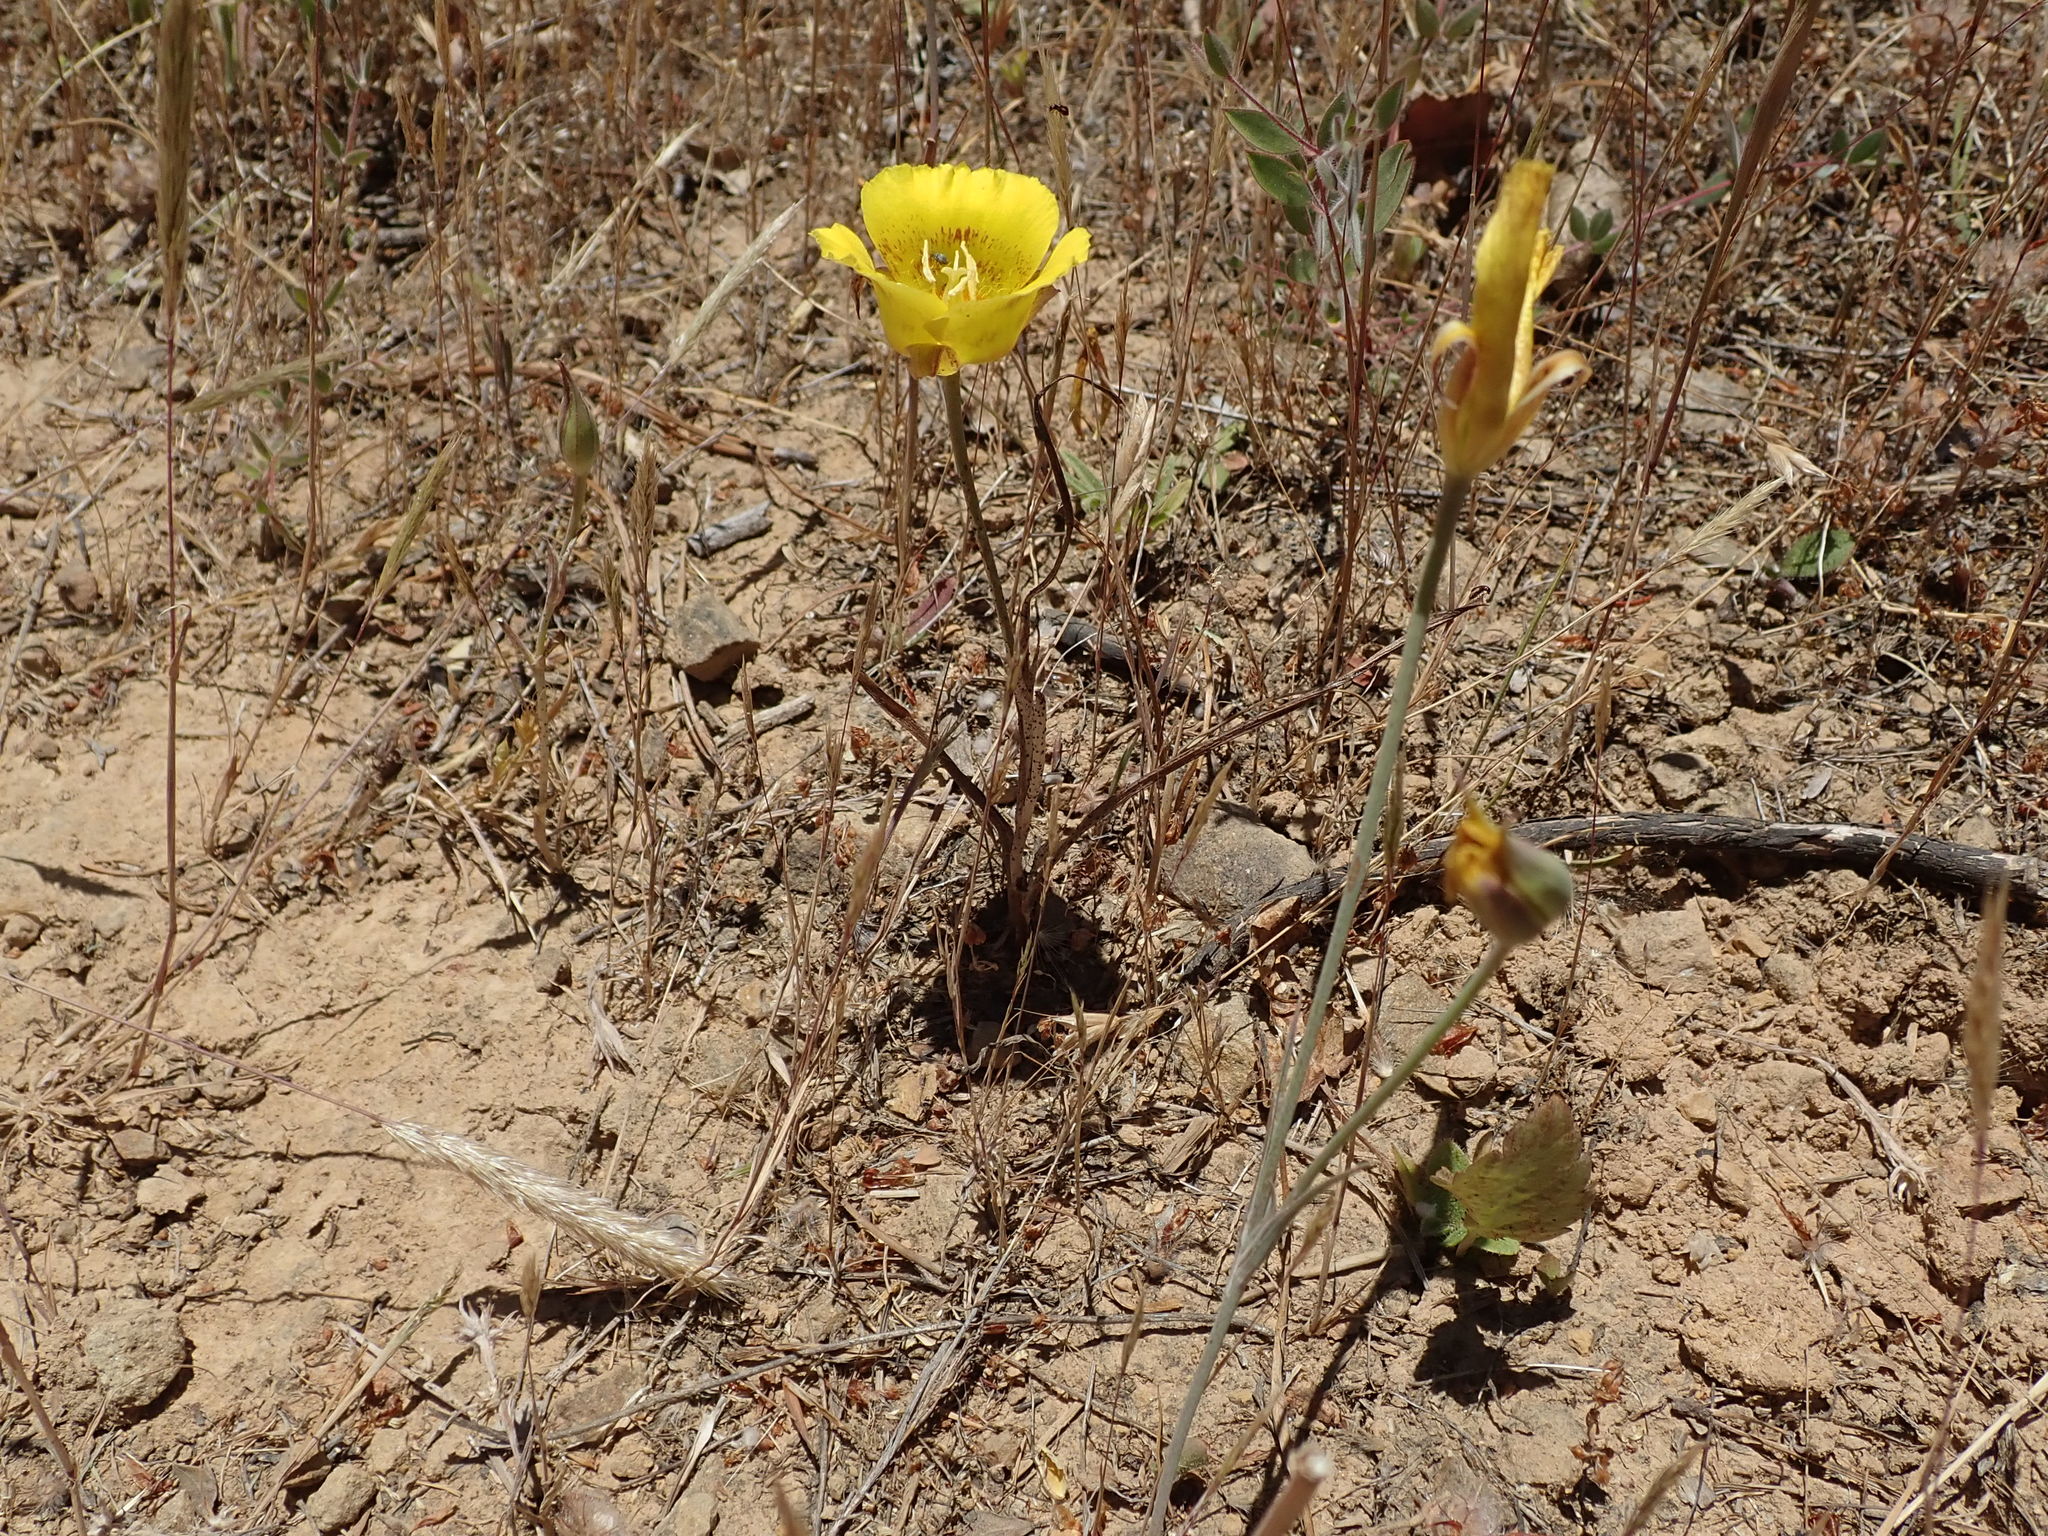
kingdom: Plantae
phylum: Tracheophyta
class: Liliopsida
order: Liliales
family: Liliaceae
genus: Calochortus
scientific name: Calochortus luteus
